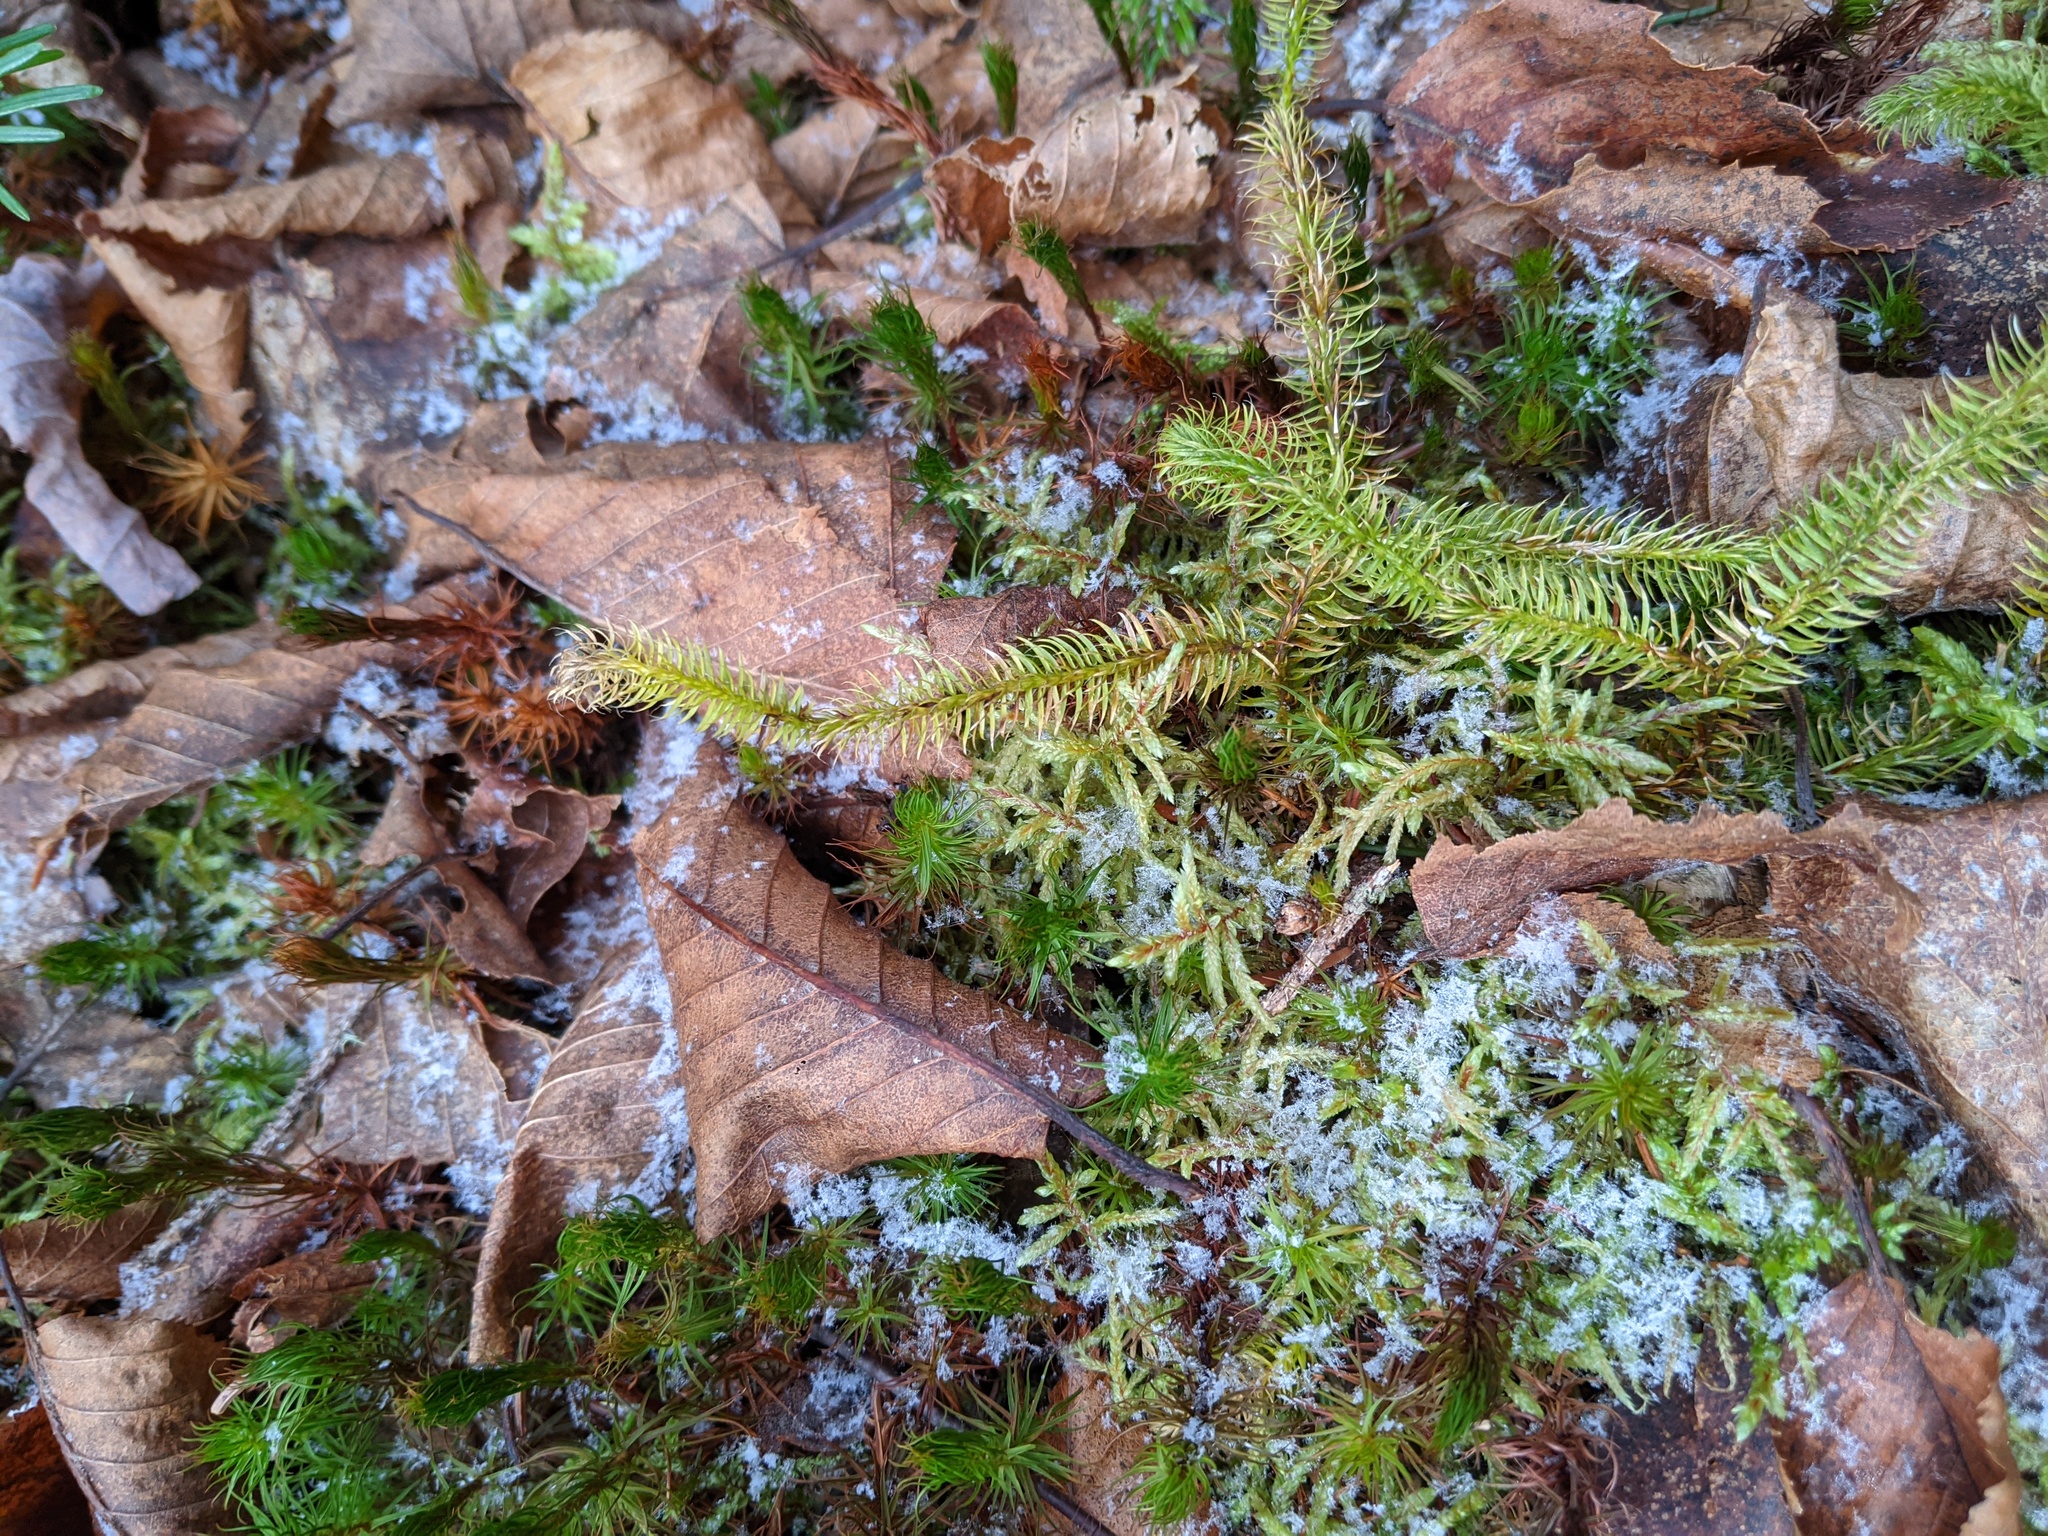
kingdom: Plantae
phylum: Tracheophyta
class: Lycopodiopsida
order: Lycopodiales
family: Lycopodiaceae
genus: Lycopodium
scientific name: Lycopodium clavatum
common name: Stag's-horn clubmoss
